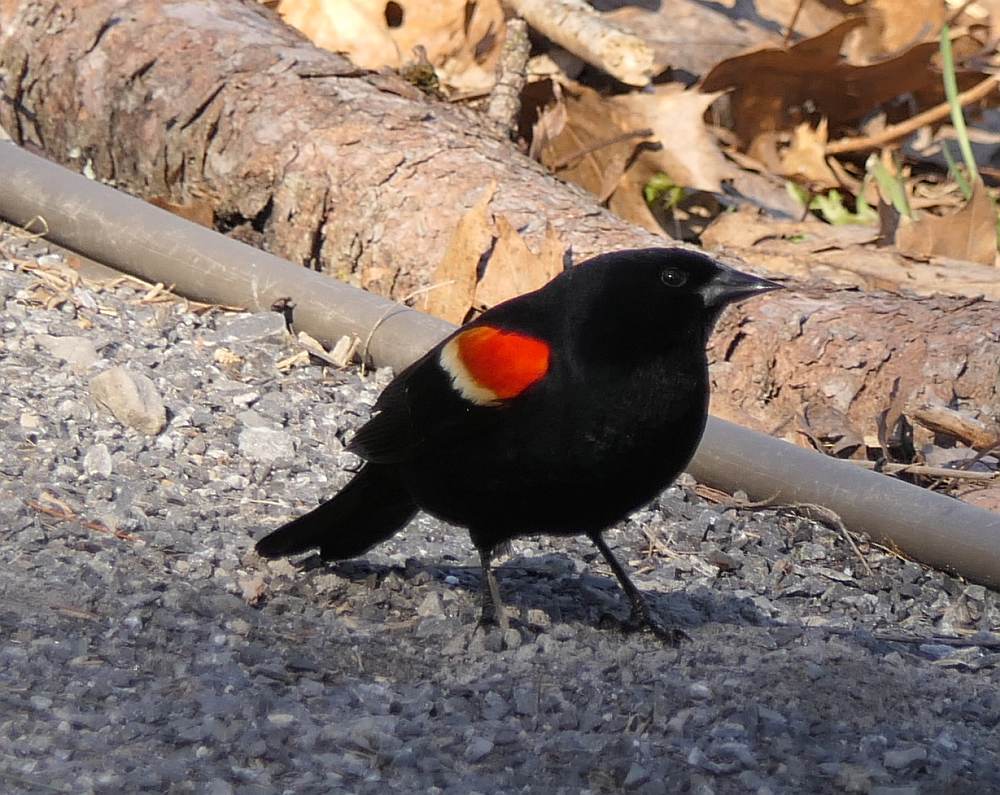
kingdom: Animalia
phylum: Chordata
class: Aves
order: Passeriformes
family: Icteridae
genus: Agelaius
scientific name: Agelaius phoeniceus
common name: Red-winged blackbird
